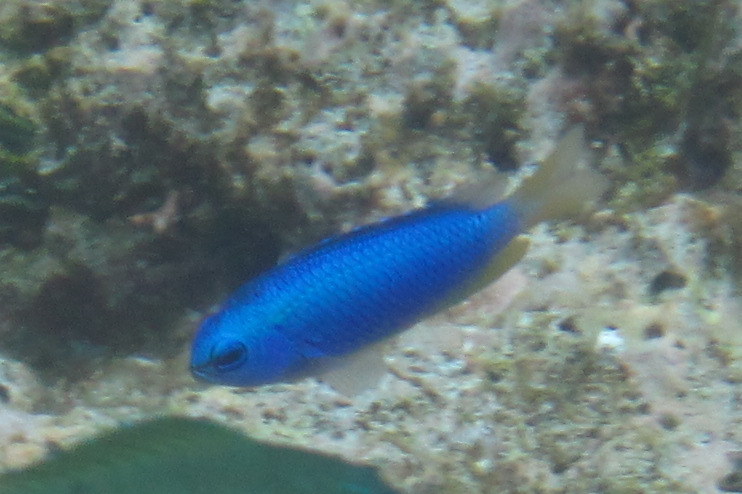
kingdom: Animalia
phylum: Chordata
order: Perciformes
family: Pomacentridae
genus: Pomacentrus
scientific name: Pomacentrus coelestis
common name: Neon damsel
